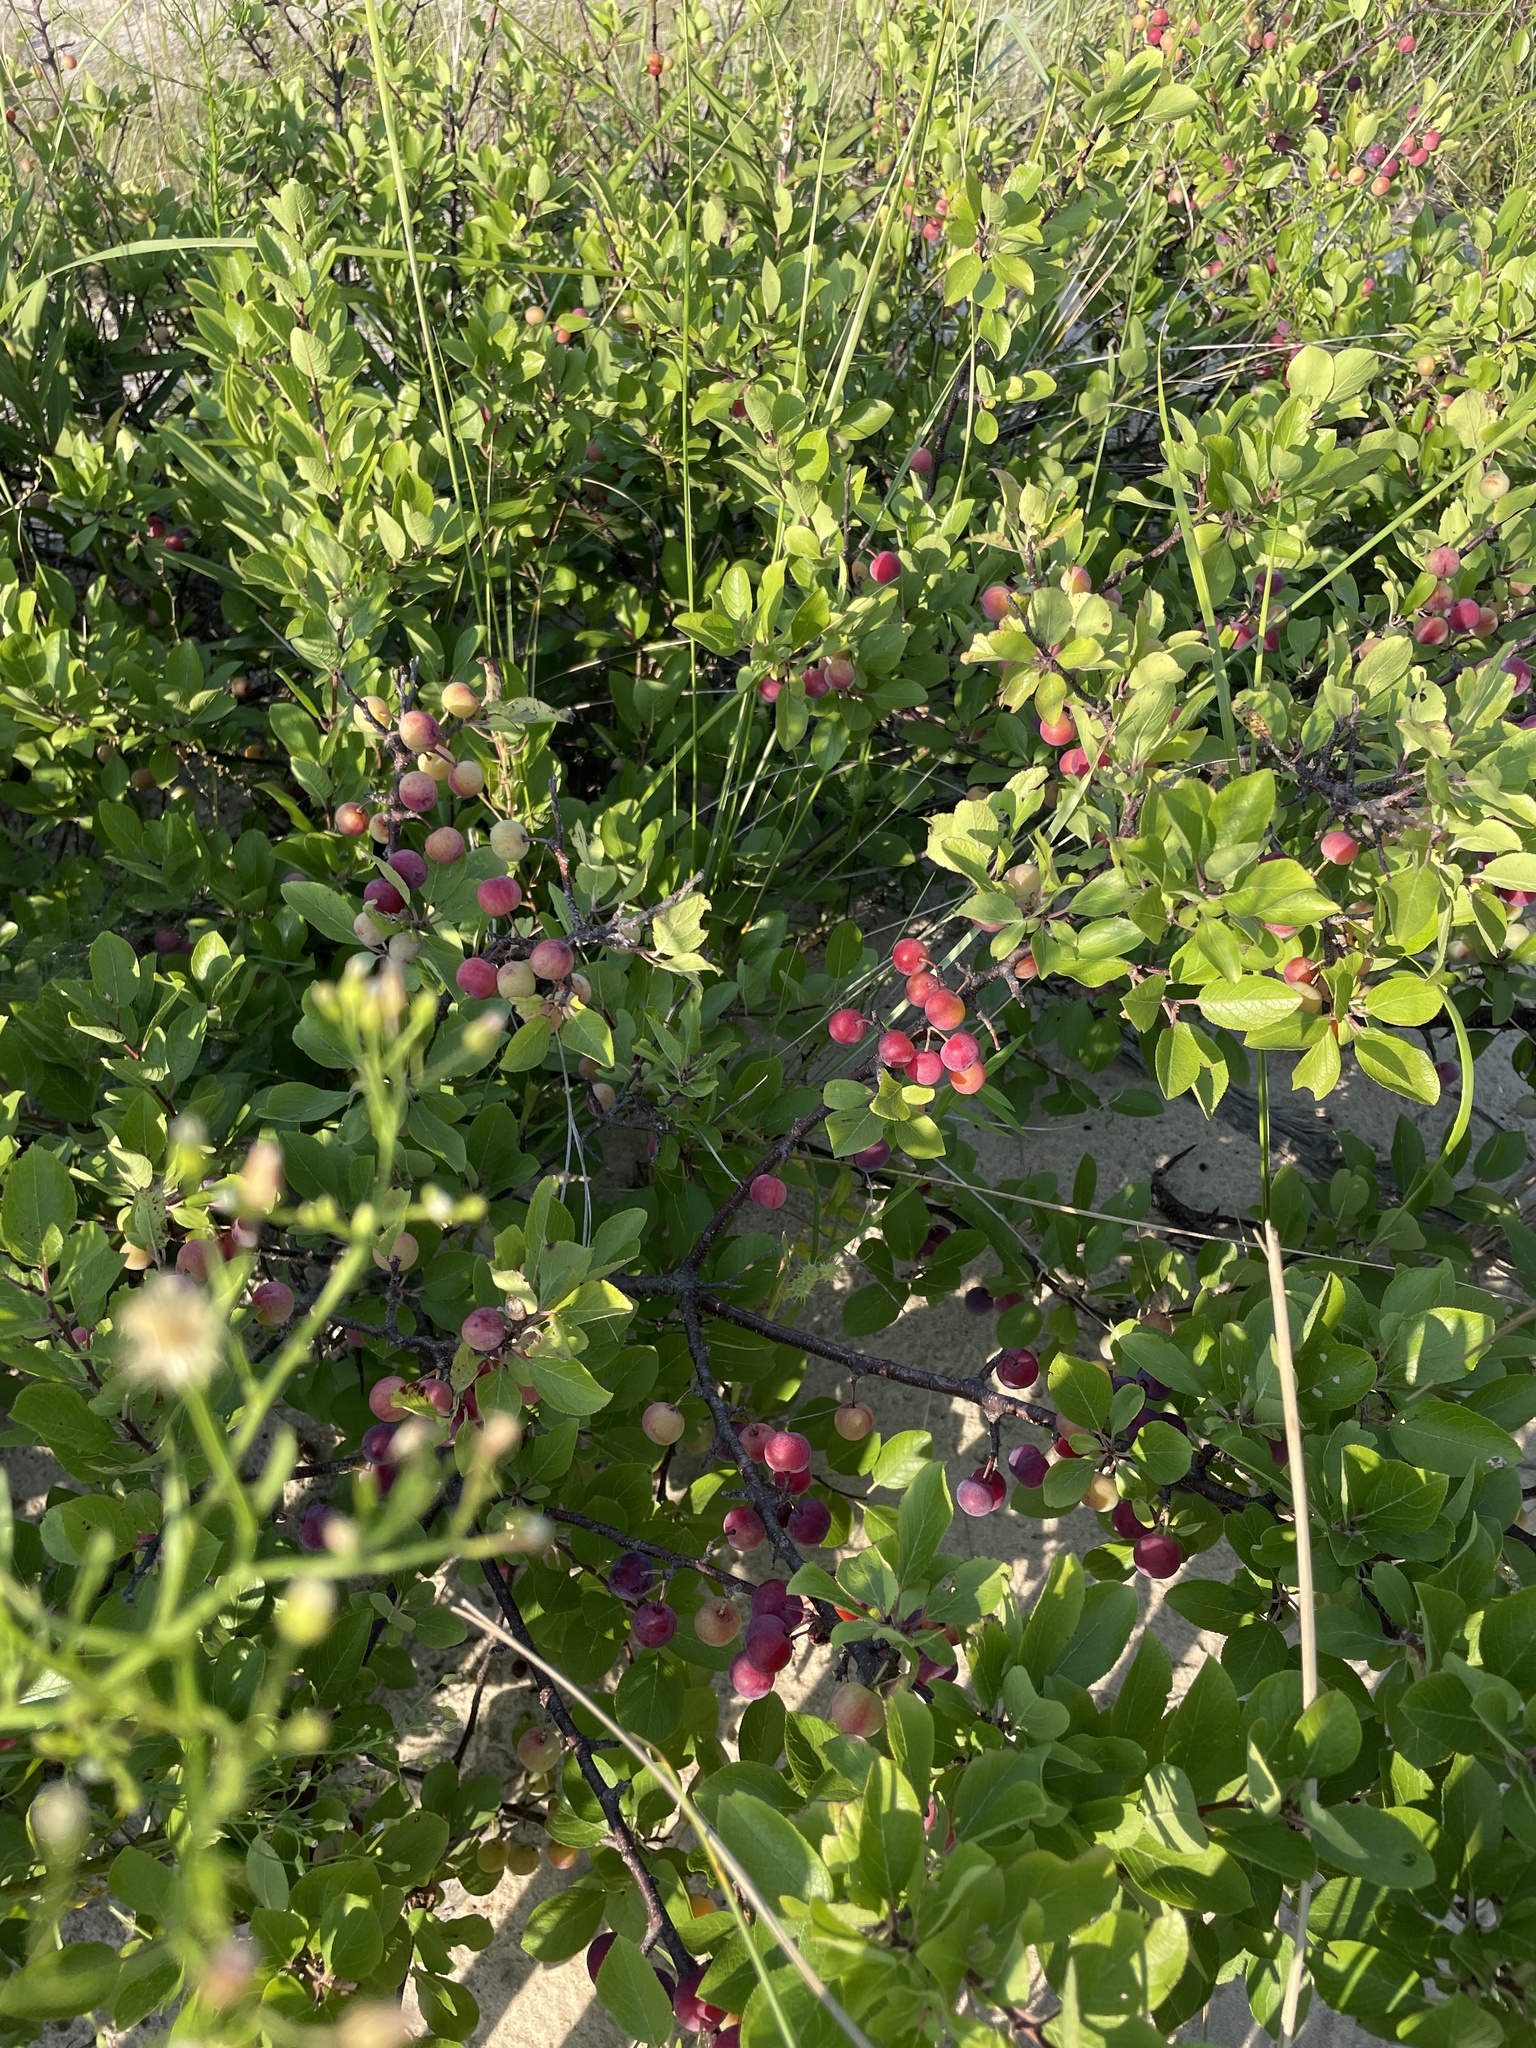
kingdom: Plantae
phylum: Tracheophyta
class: Magnoliopsida
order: Rosales
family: Rosaceae
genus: Prunus
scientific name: Prunus maritima
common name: Beach plum
